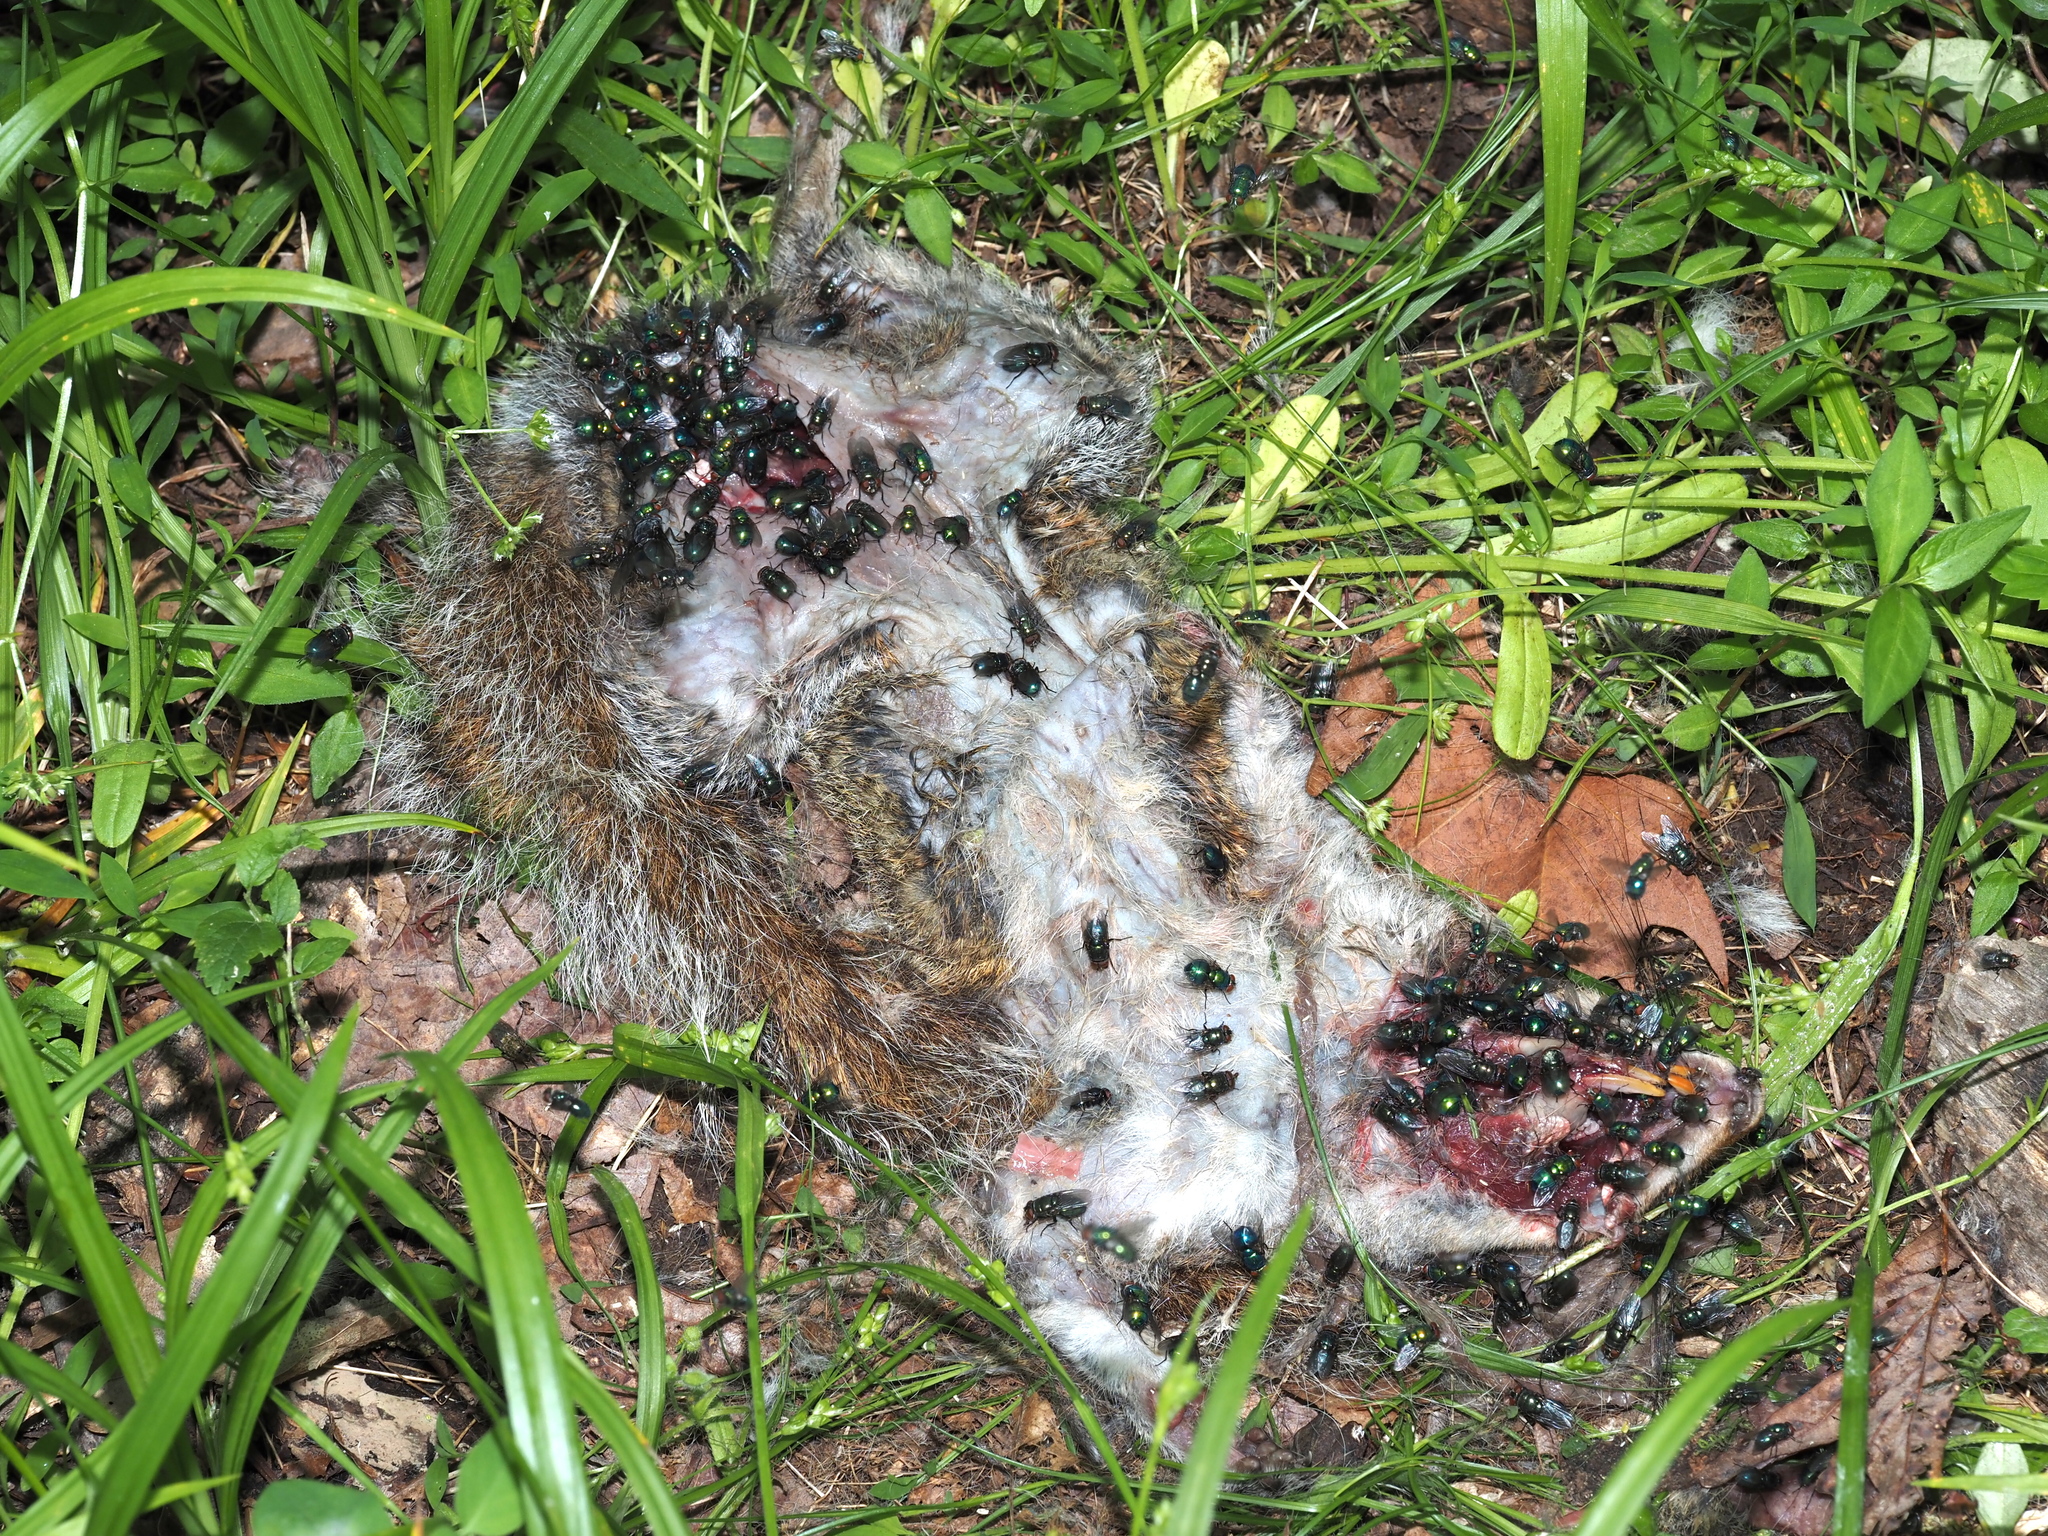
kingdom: Animalia
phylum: Chordata
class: Mammalia
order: Rodentia
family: Sciuridae
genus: Sciurus
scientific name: Sciurus carolinensis
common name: Eastern gray squirrel
